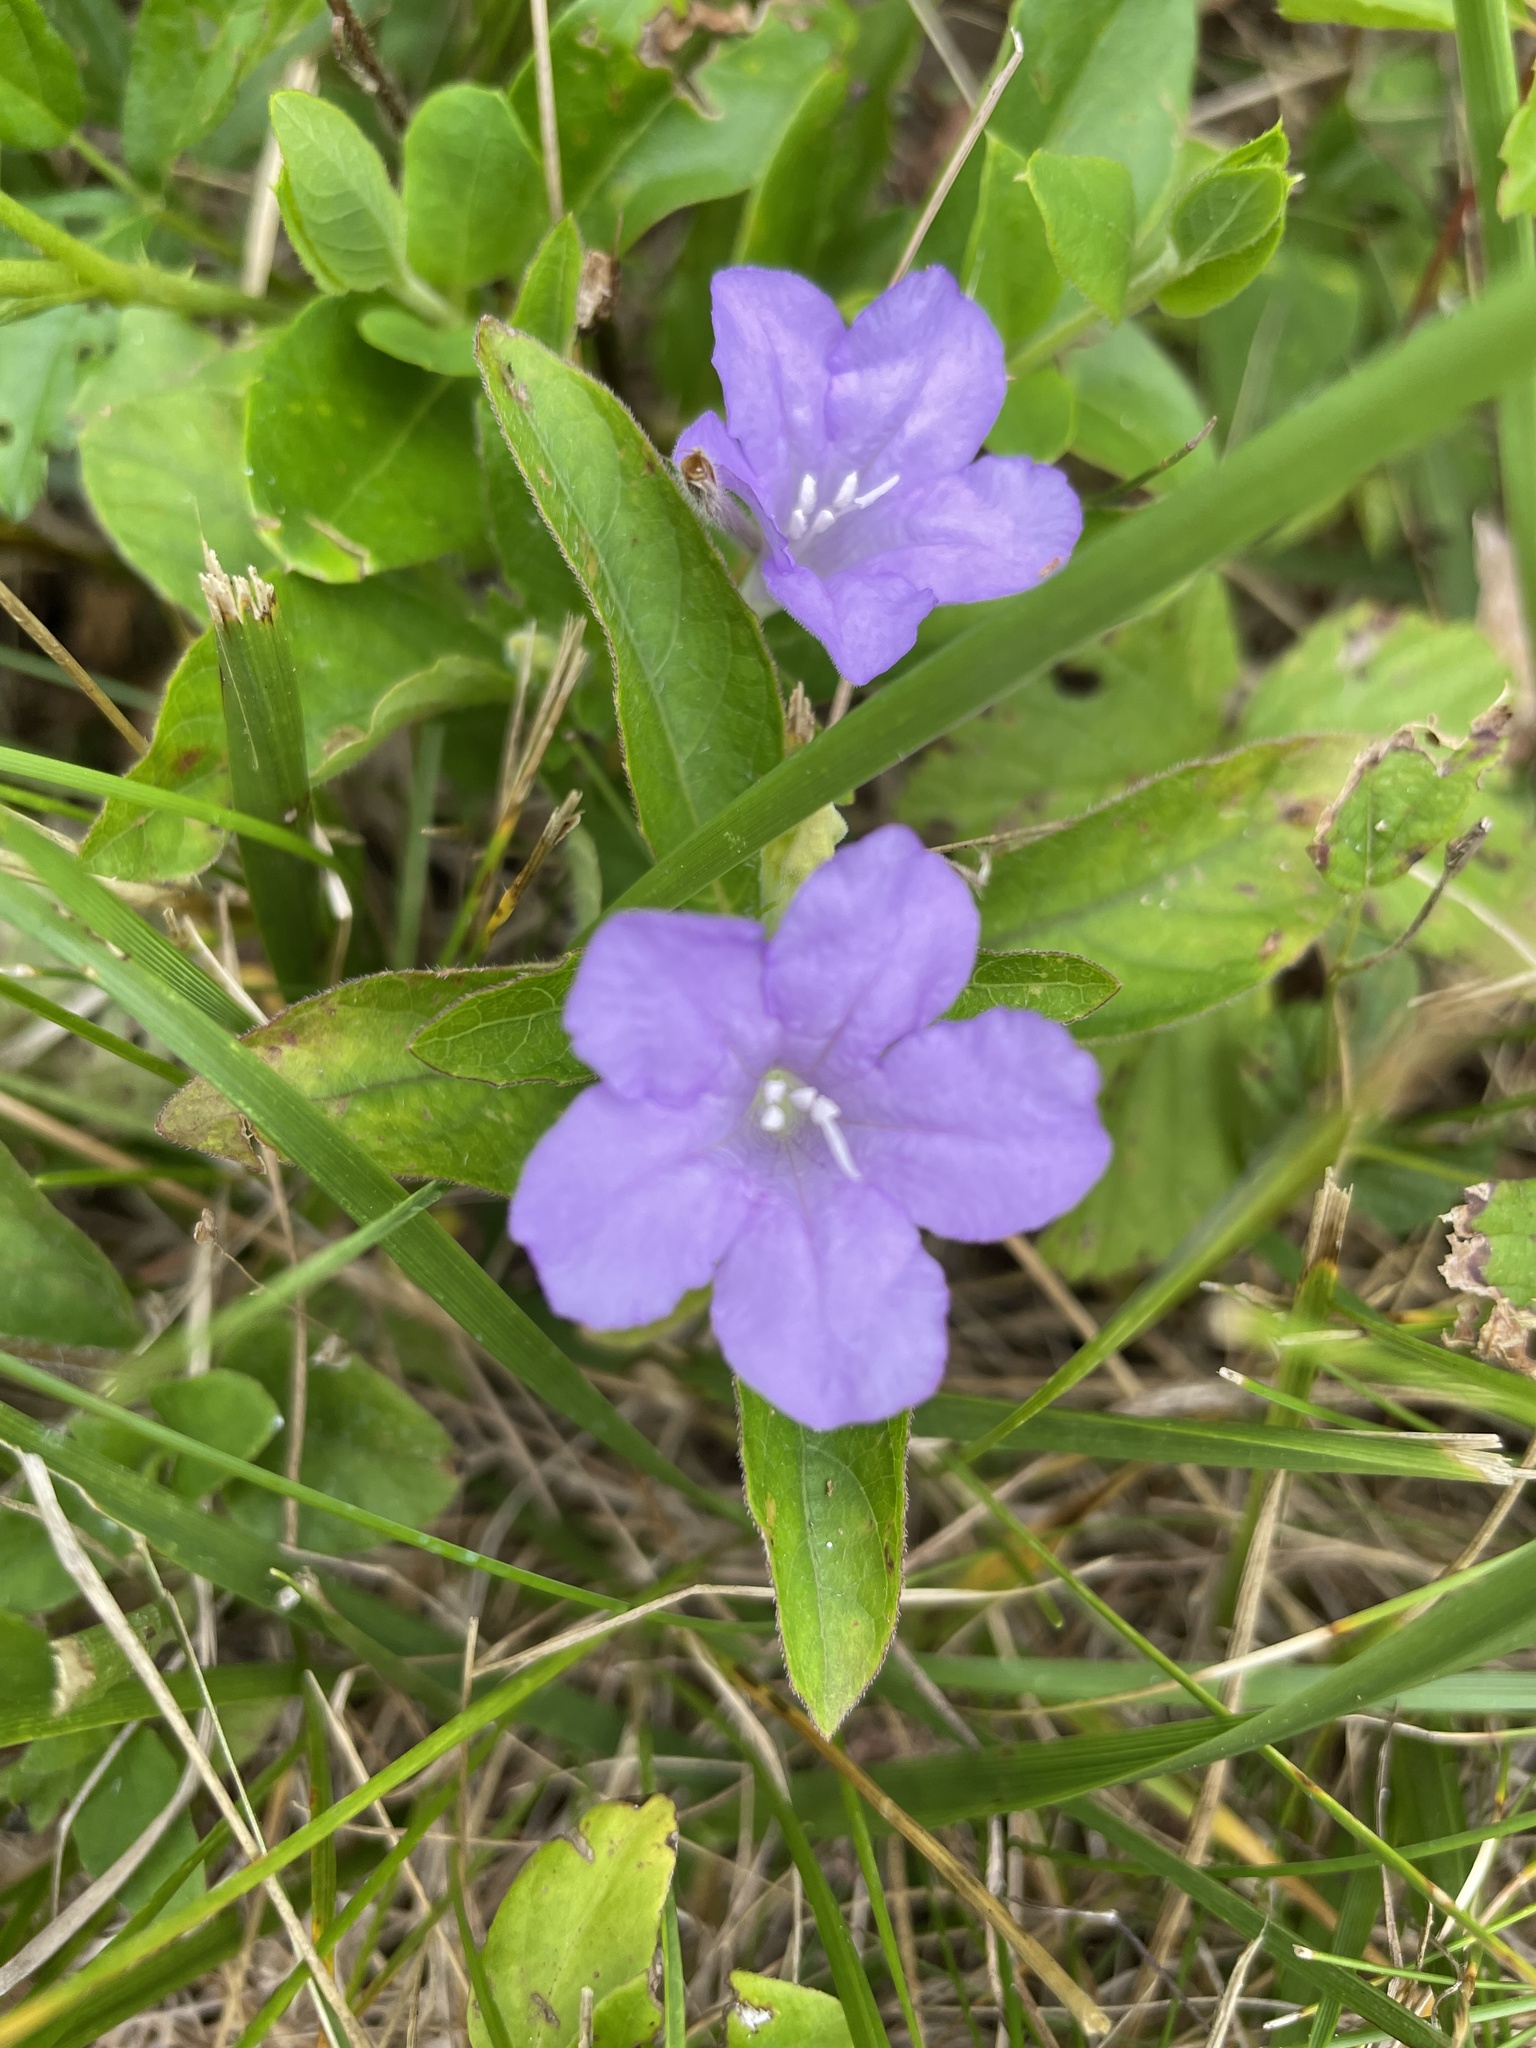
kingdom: Plantae
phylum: Tracheophyta
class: Magnoliopsida
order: Lamiales
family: Acanthaceae
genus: Ruellia
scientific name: Ruellia caroliniensis
